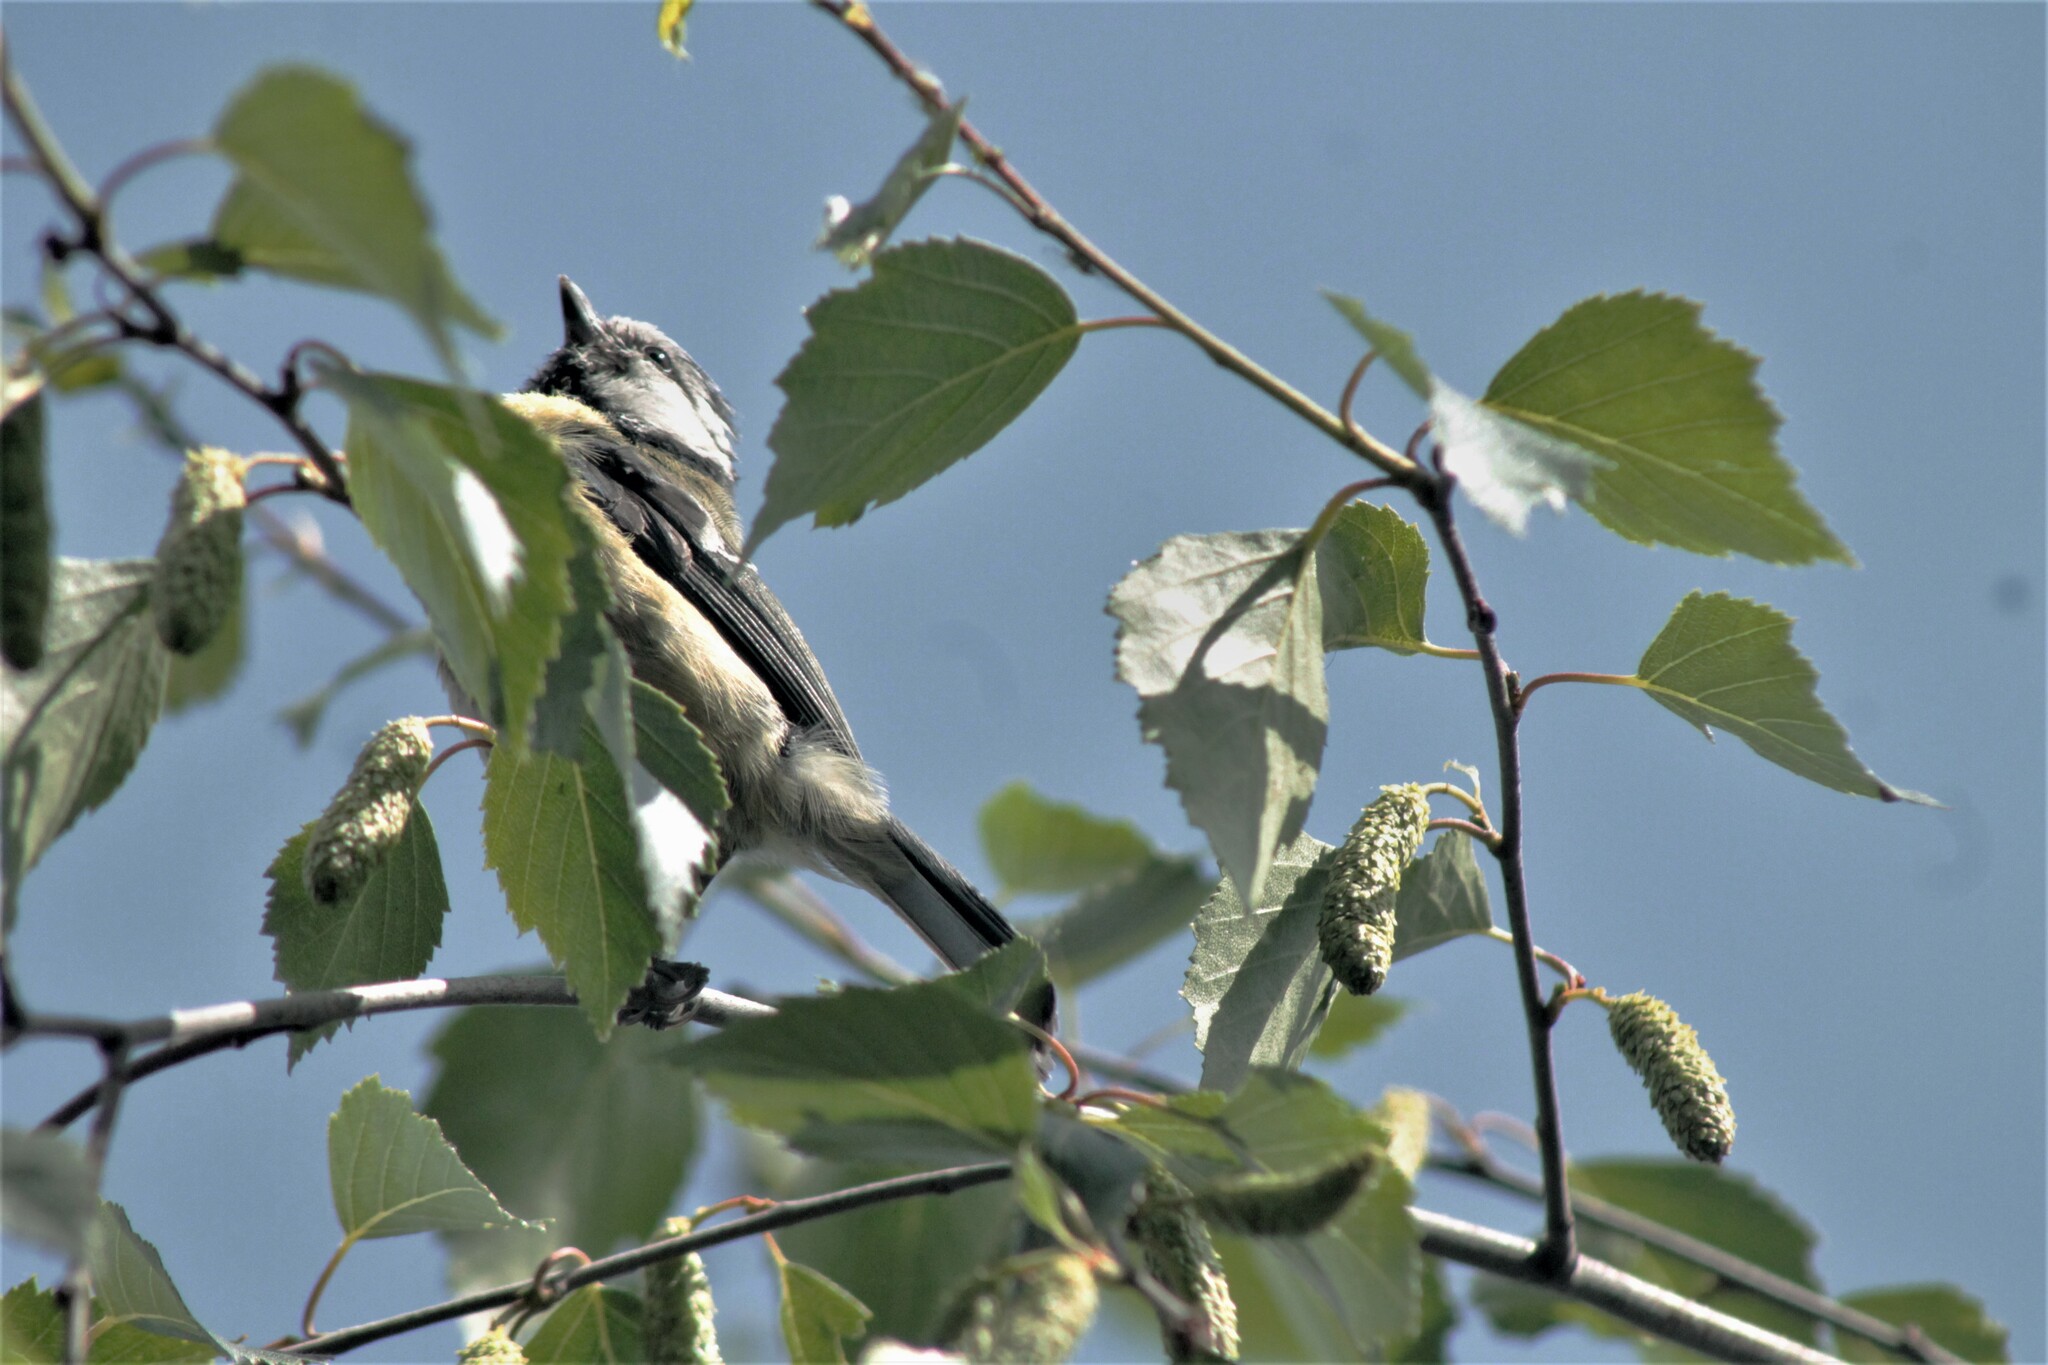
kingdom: Animalia
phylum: Chordata
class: Aves
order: Passeriformes
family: Paridae
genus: Cyanistes
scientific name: Cyanistes caeruleus
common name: Eurasian blue tit
